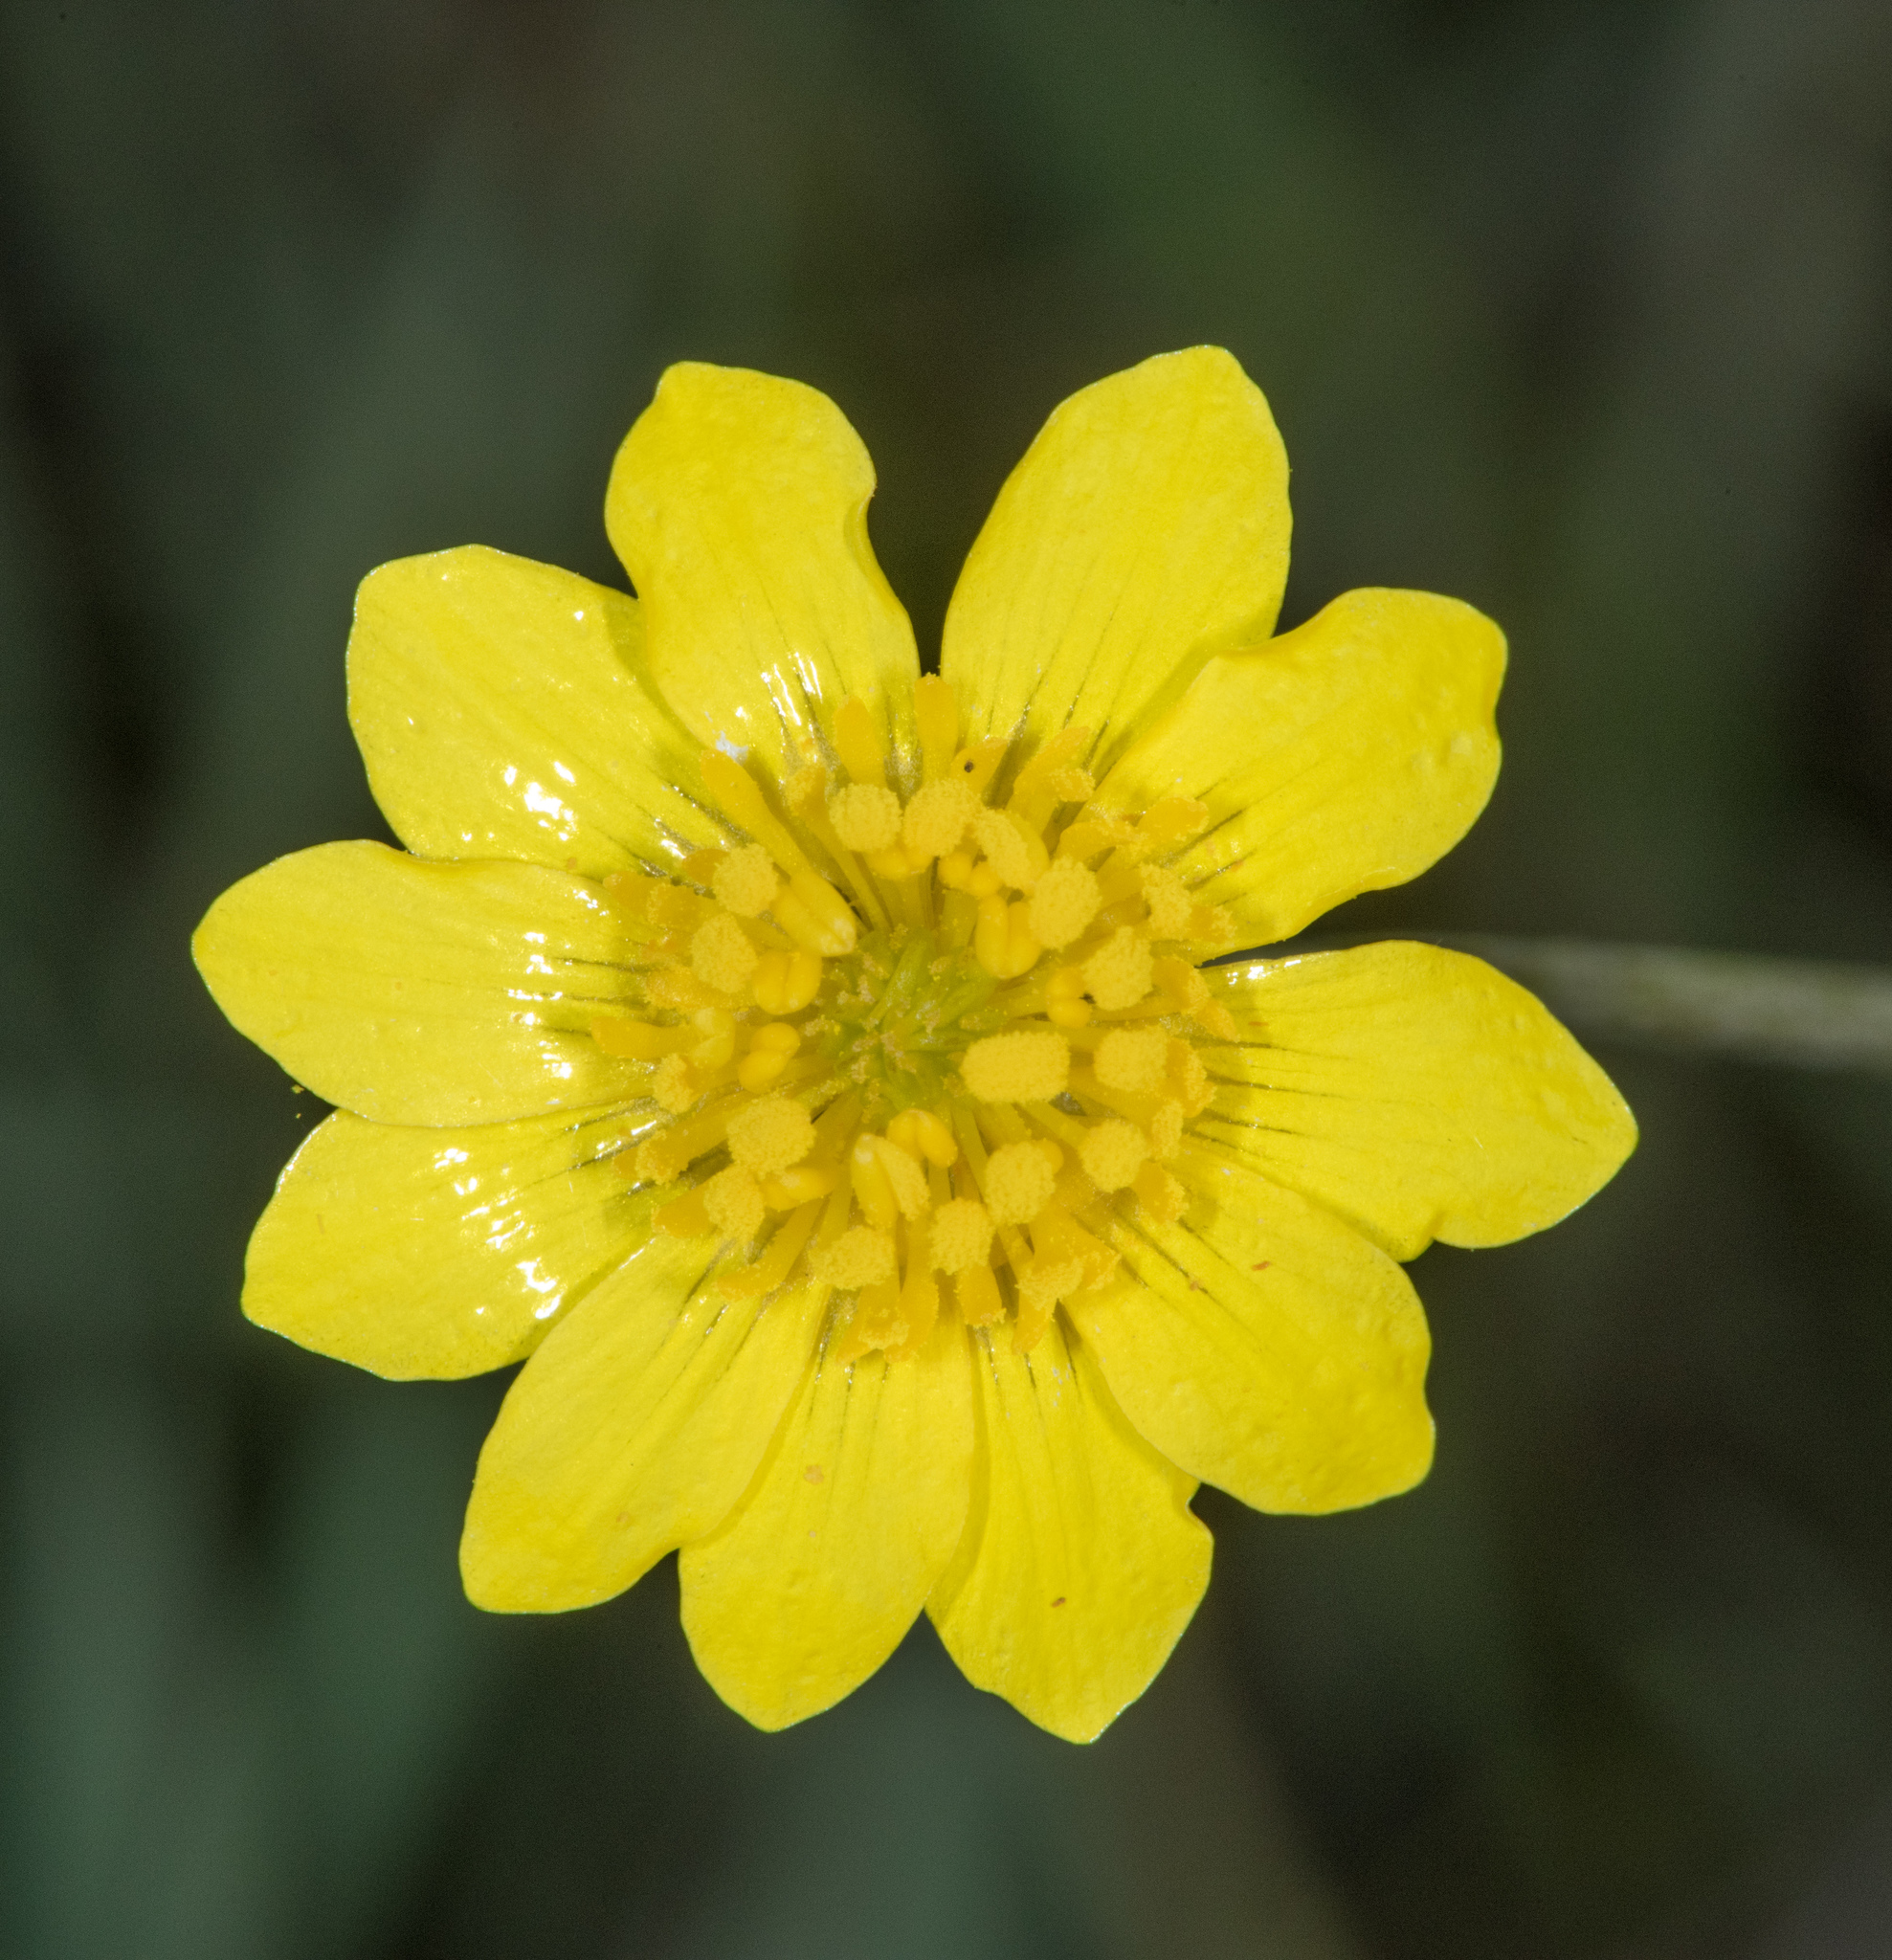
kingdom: Plantae
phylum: Tracheophyta
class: Magnoliopsida
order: Ranunculales
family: Ranunculaceae
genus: Ranunculus
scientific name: Ranunculus occidentalis
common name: Western buttercup
